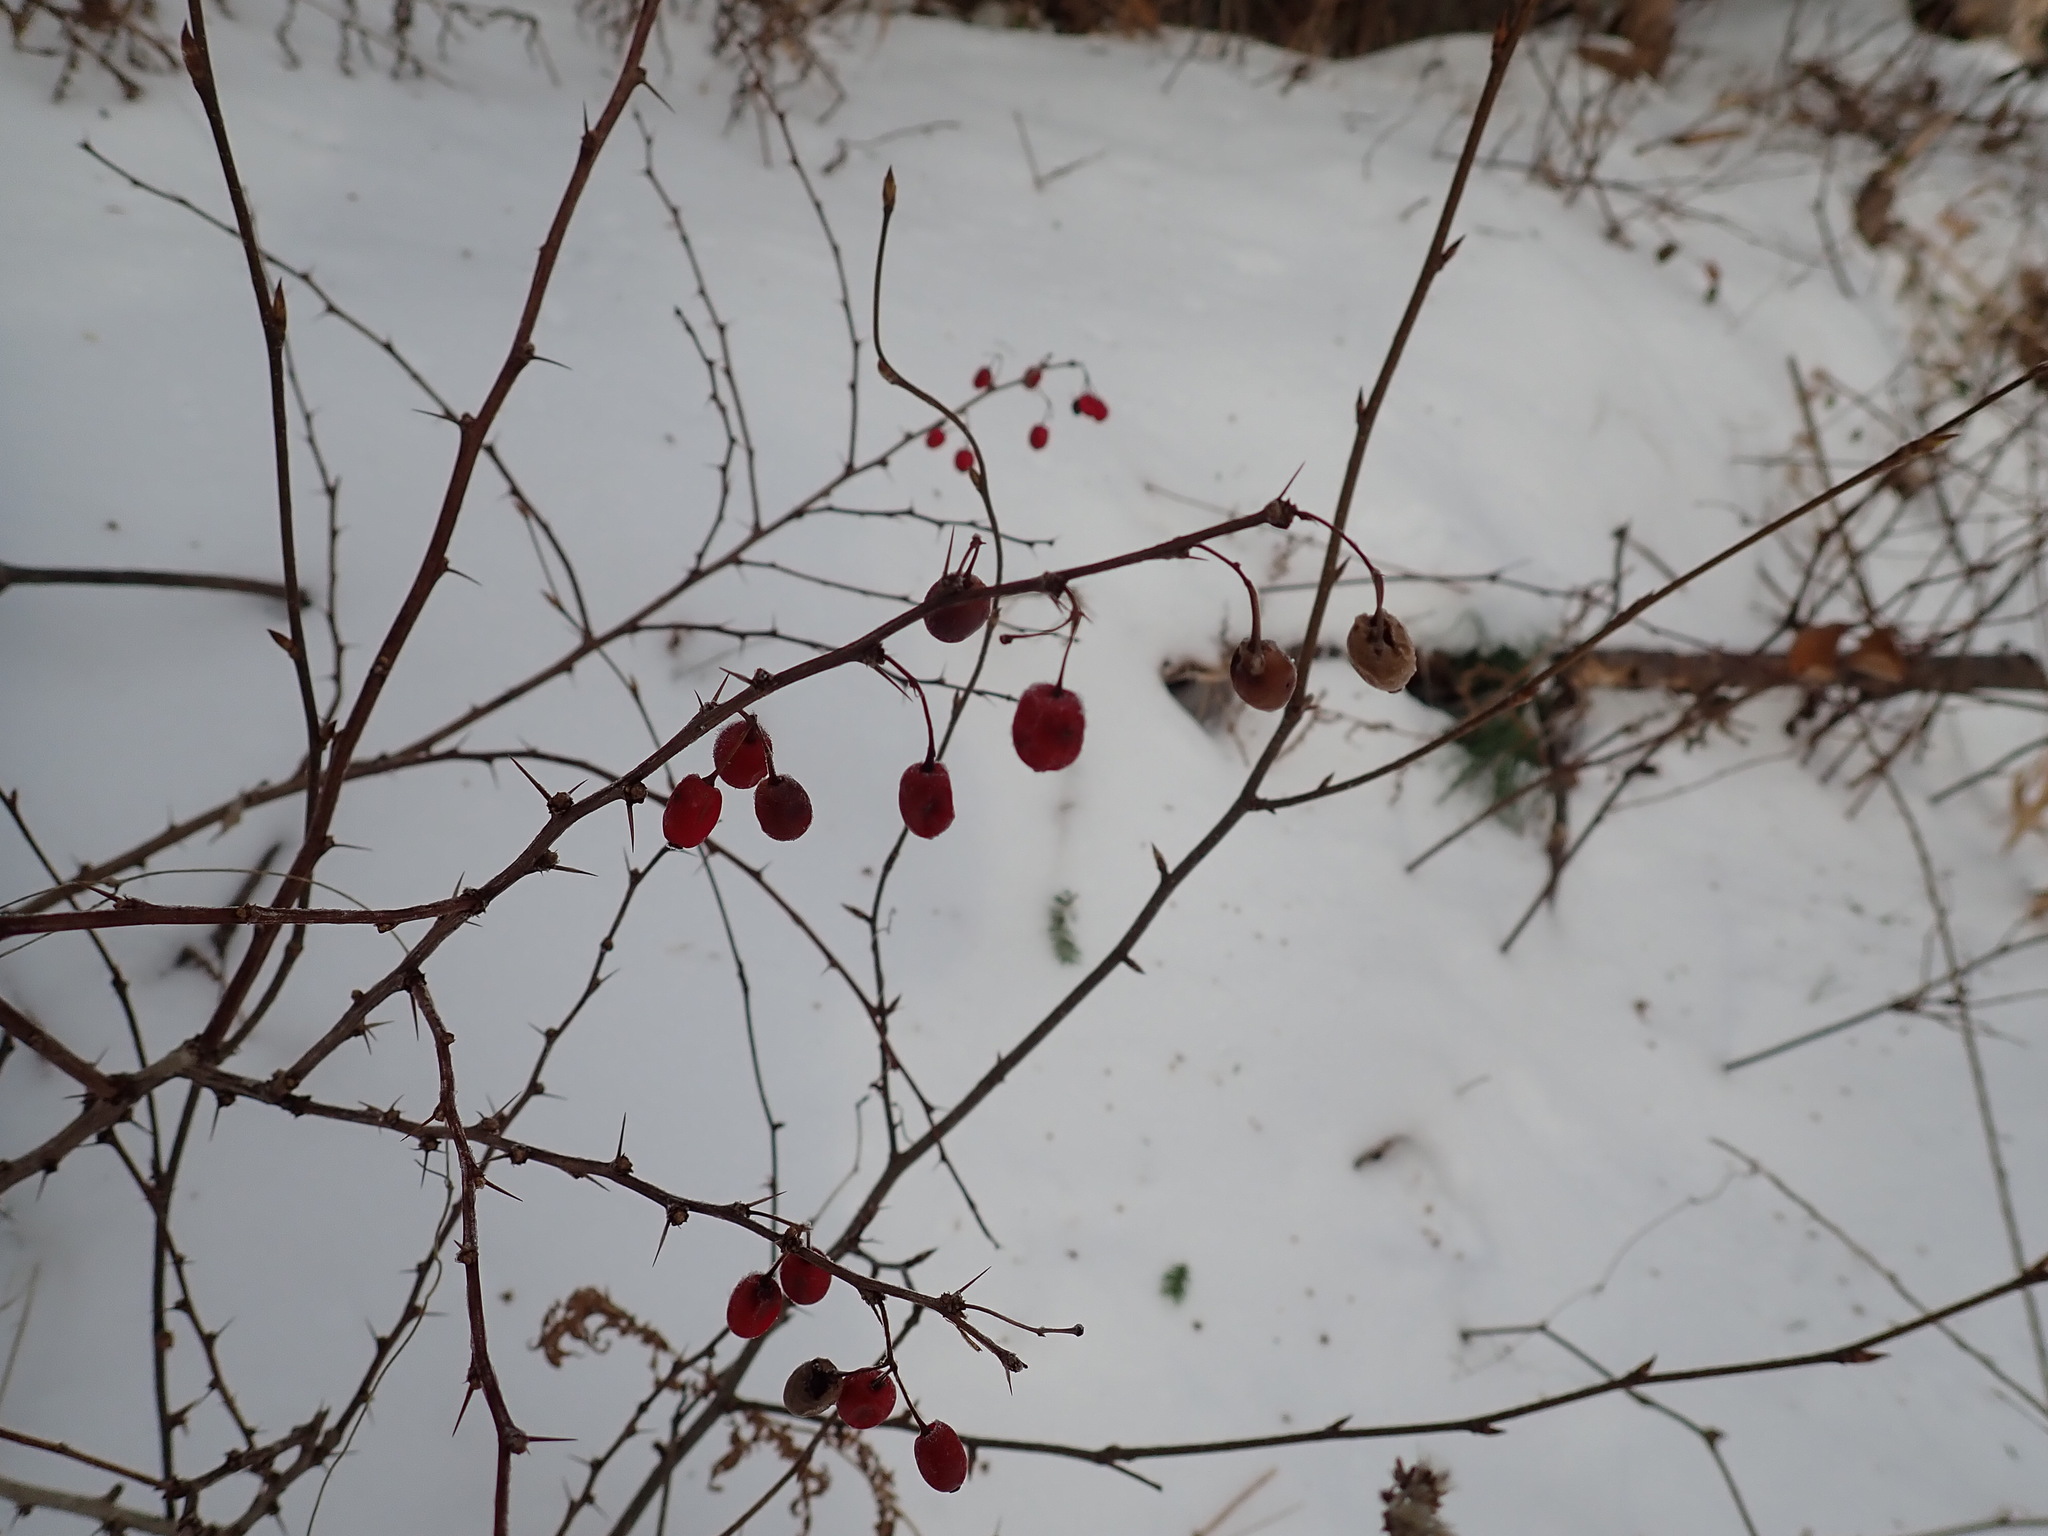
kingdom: Plantae
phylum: Tracheophyta
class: Magnoliopsida
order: Ranunculales
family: Berberidaceae
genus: Berberis
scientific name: Berberis thunbergii
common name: Japanese barberry
